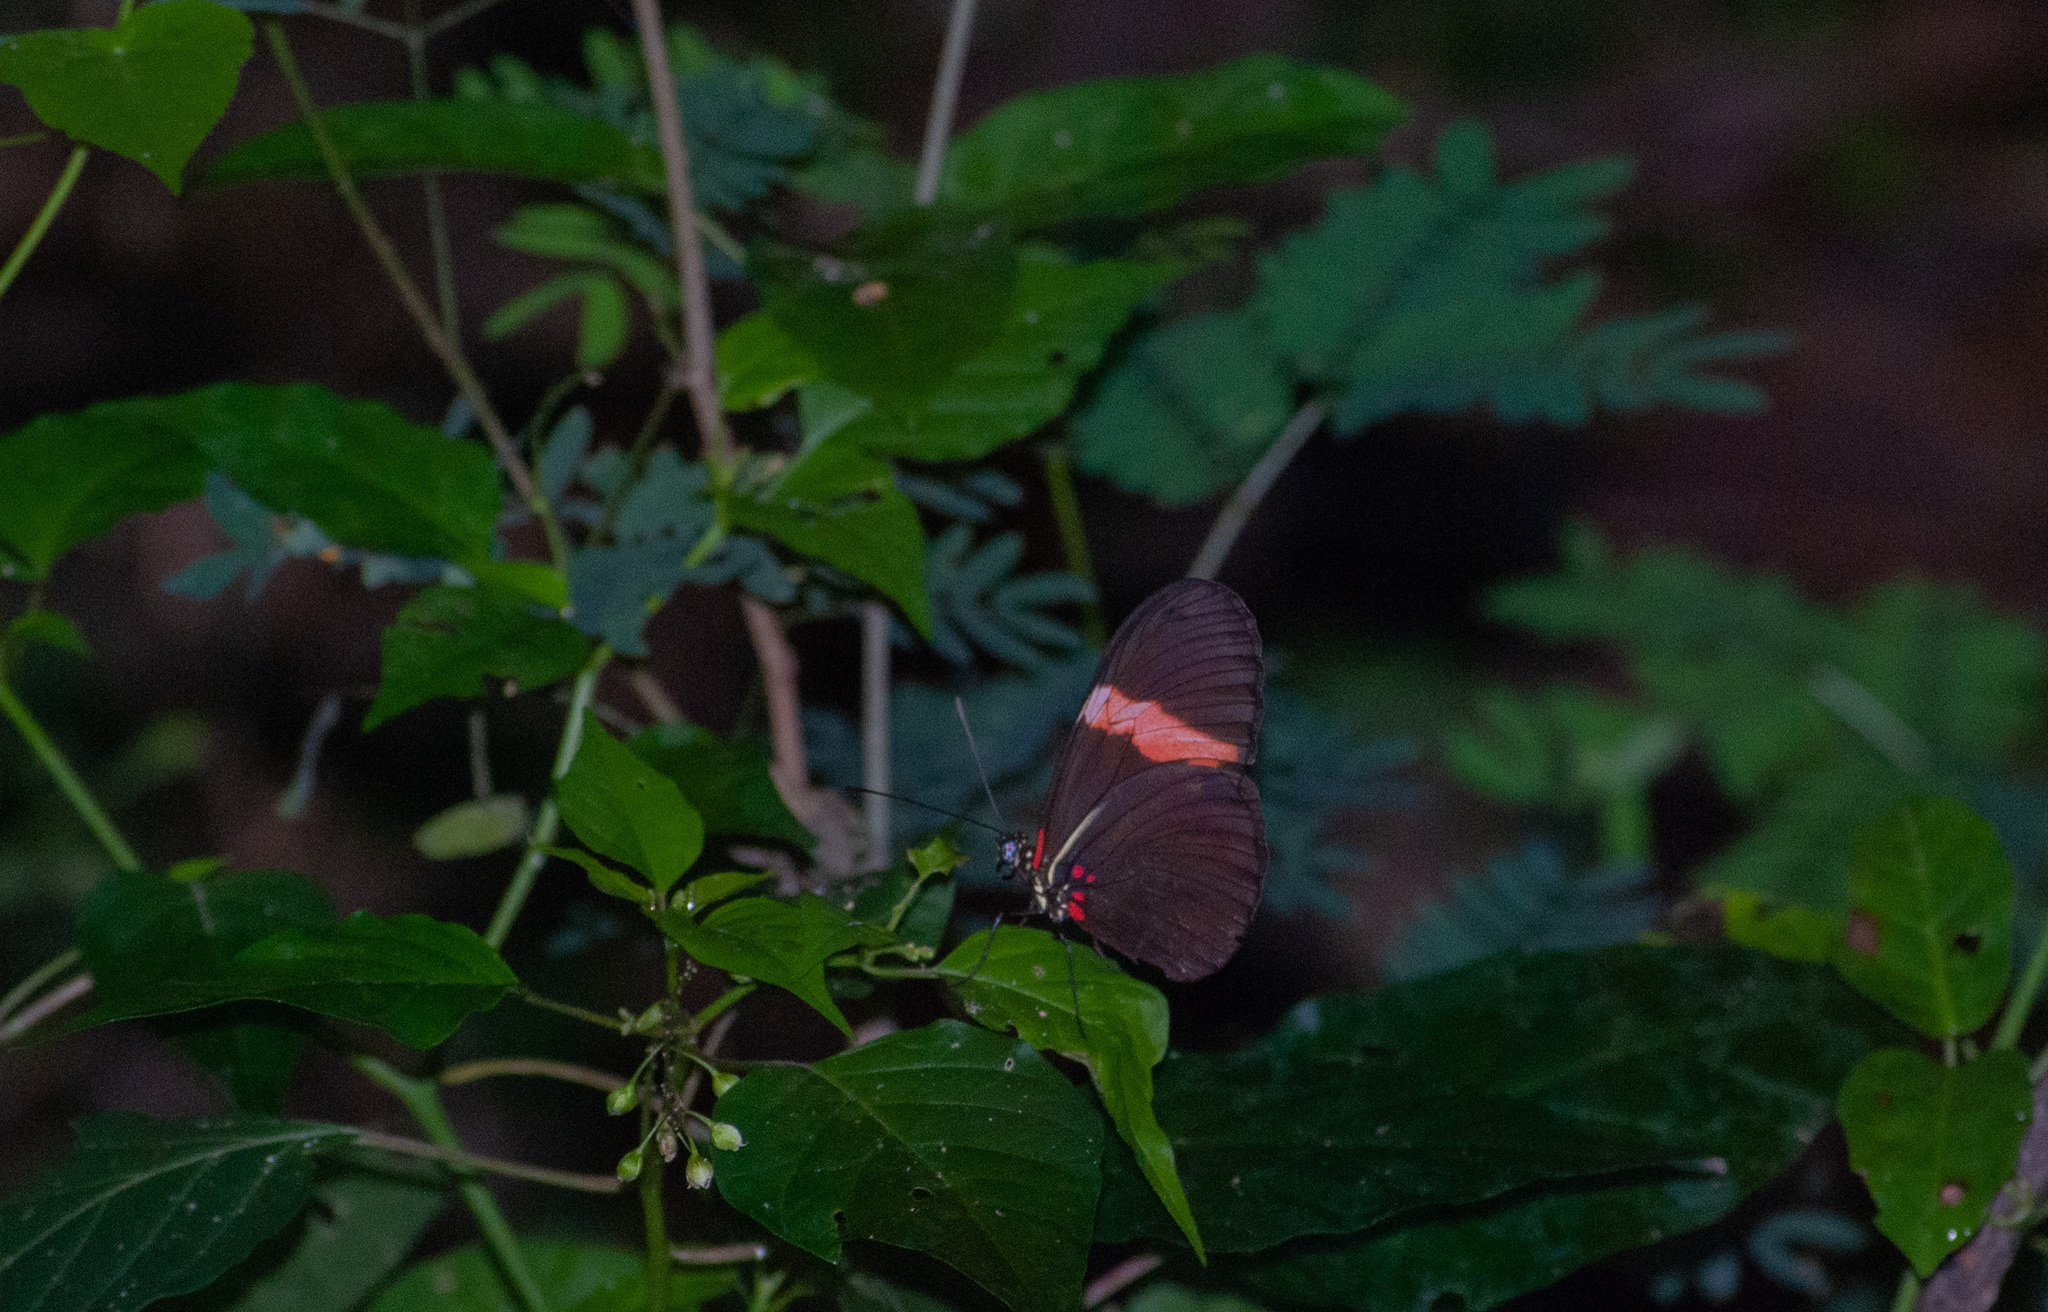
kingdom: Animalia
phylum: Arthropoda
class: Insecta
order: Lepidoptera
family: Nymphalidae
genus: Heliconius
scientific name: Heliconius erato
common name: Common patch longwing
